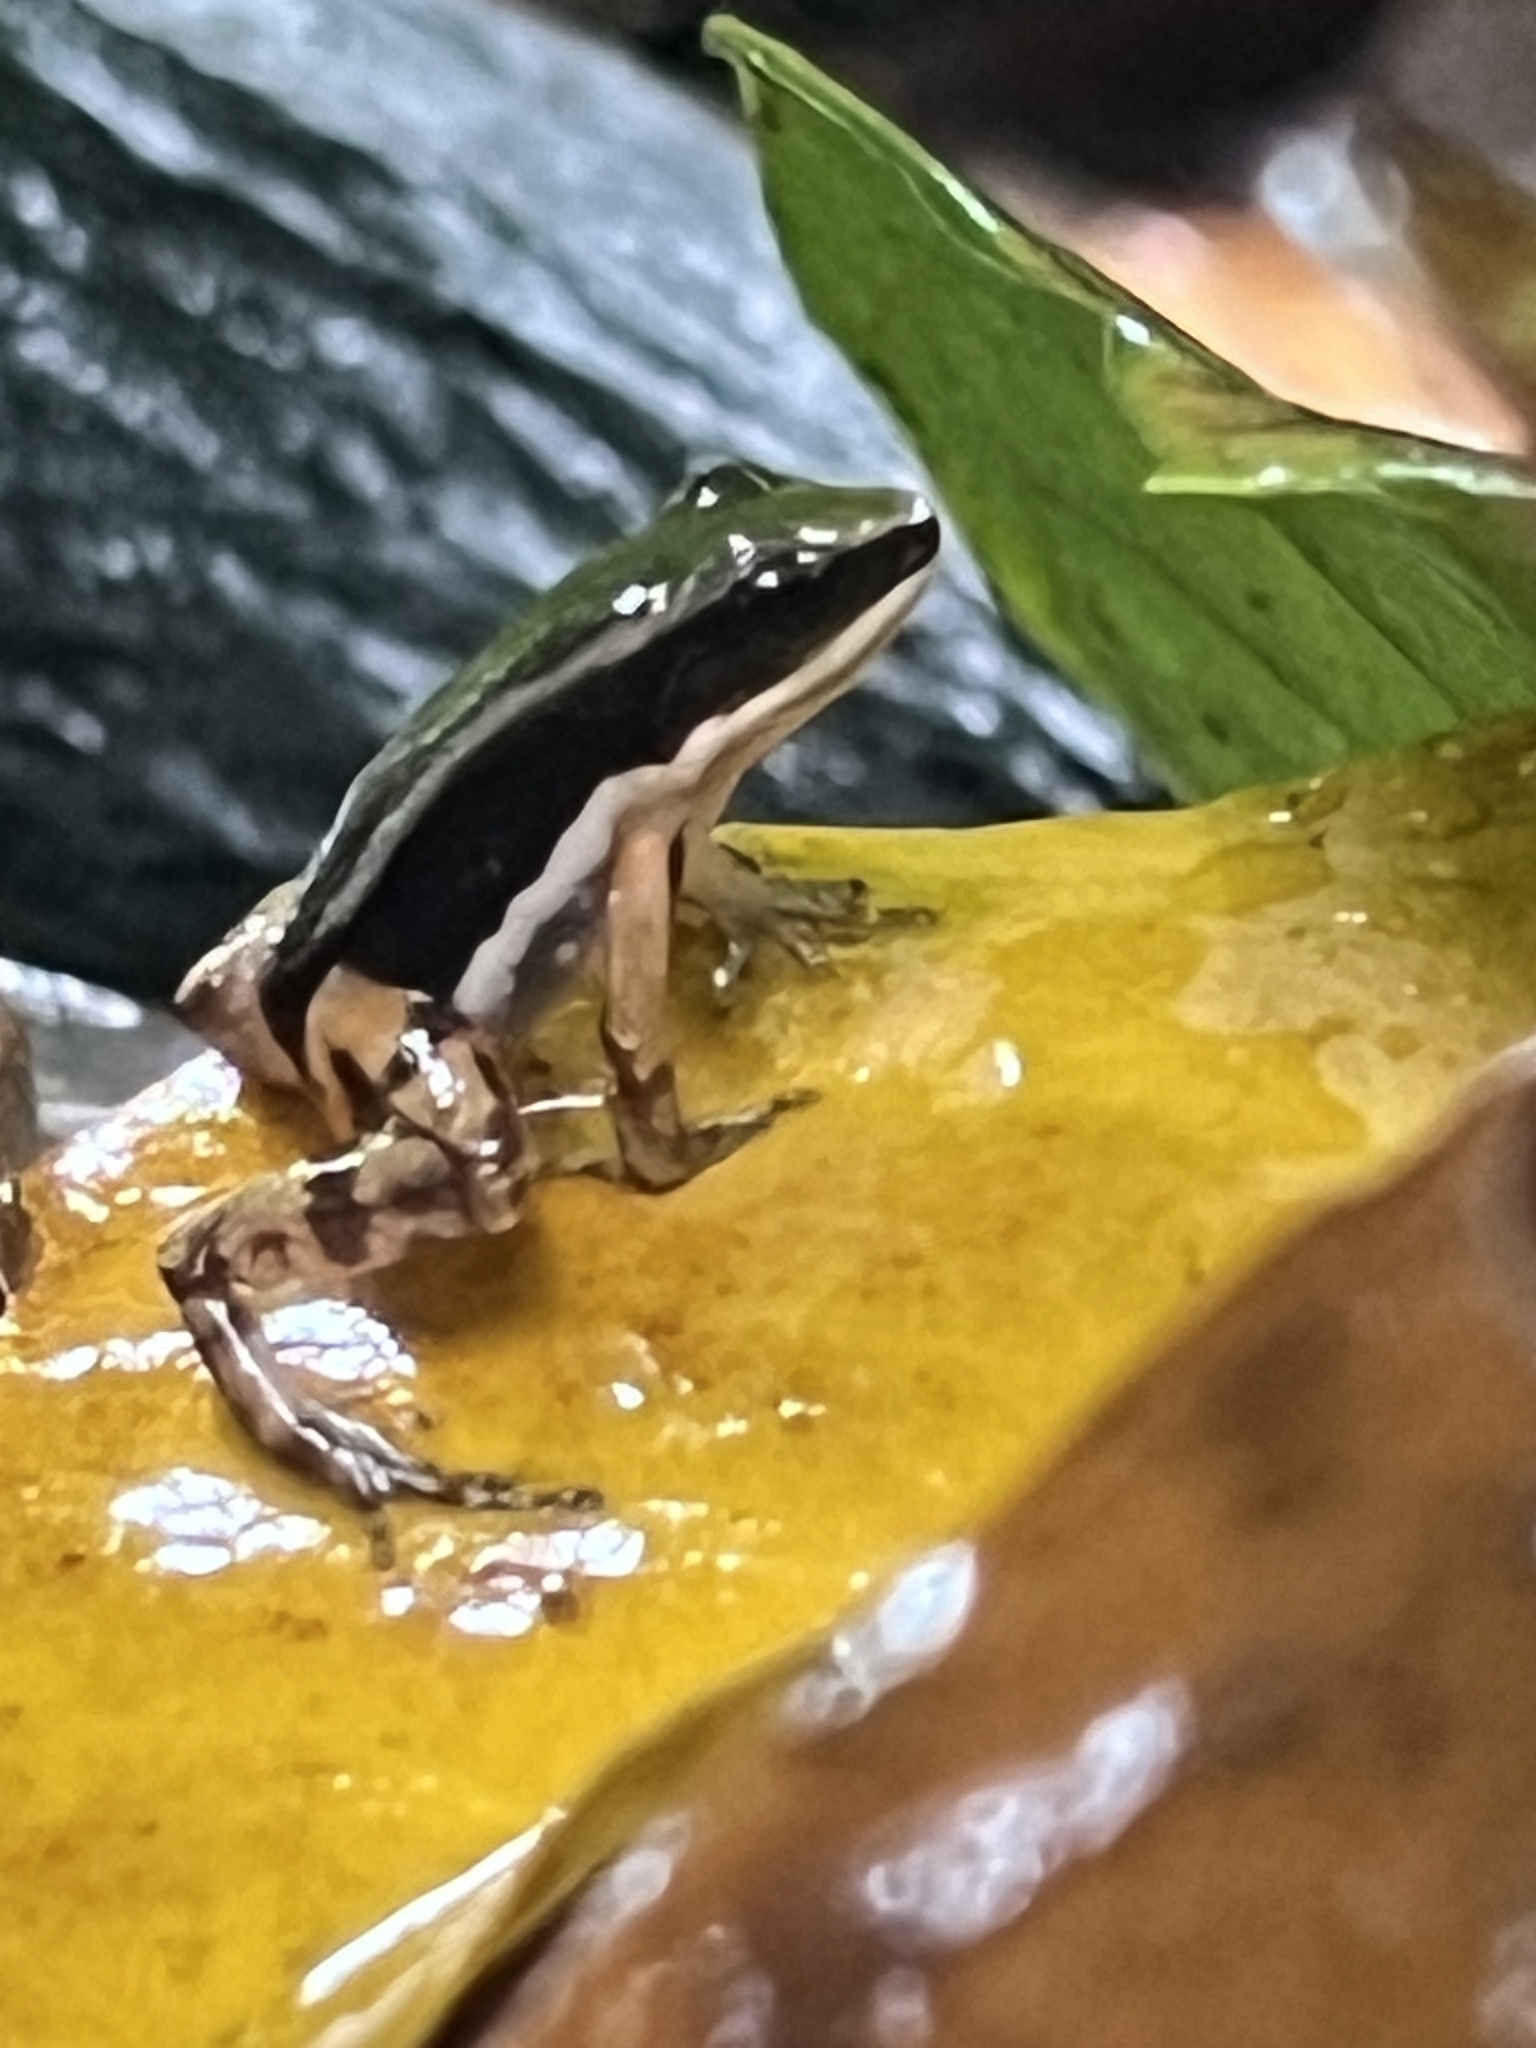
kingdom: Animalia
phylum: Chordata
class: Amphibia
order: Anura
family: Aromobatidae
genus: Allobates
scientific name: Allobates talamancae
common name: Talamanca rocket frog
